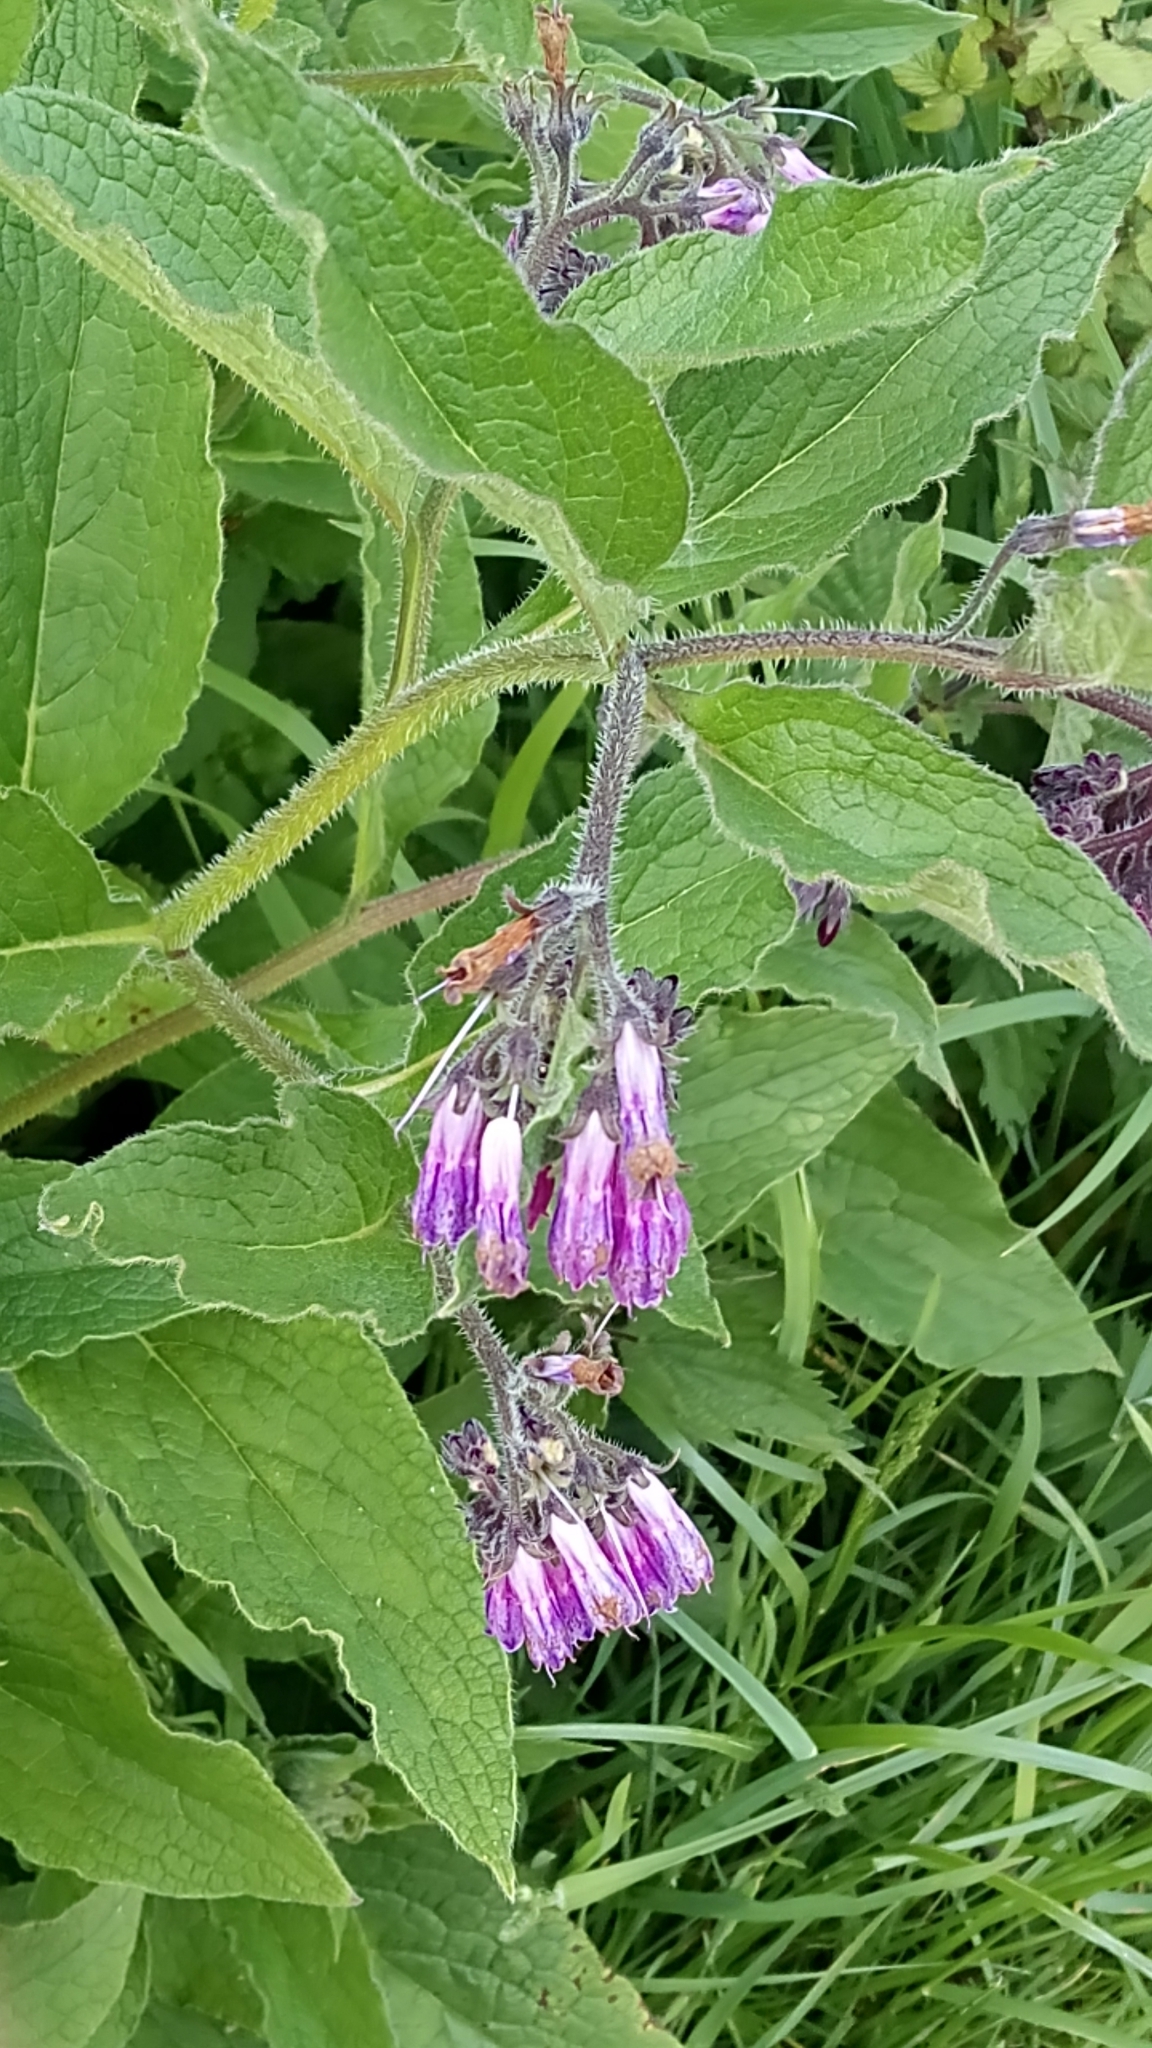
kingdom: Plantae
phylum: Tracheophyta
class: Magnoliopsida
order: Boraginales
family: Boraginaceae
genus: Symphytum
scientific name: Symphytum officinale
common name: Common comfrey
